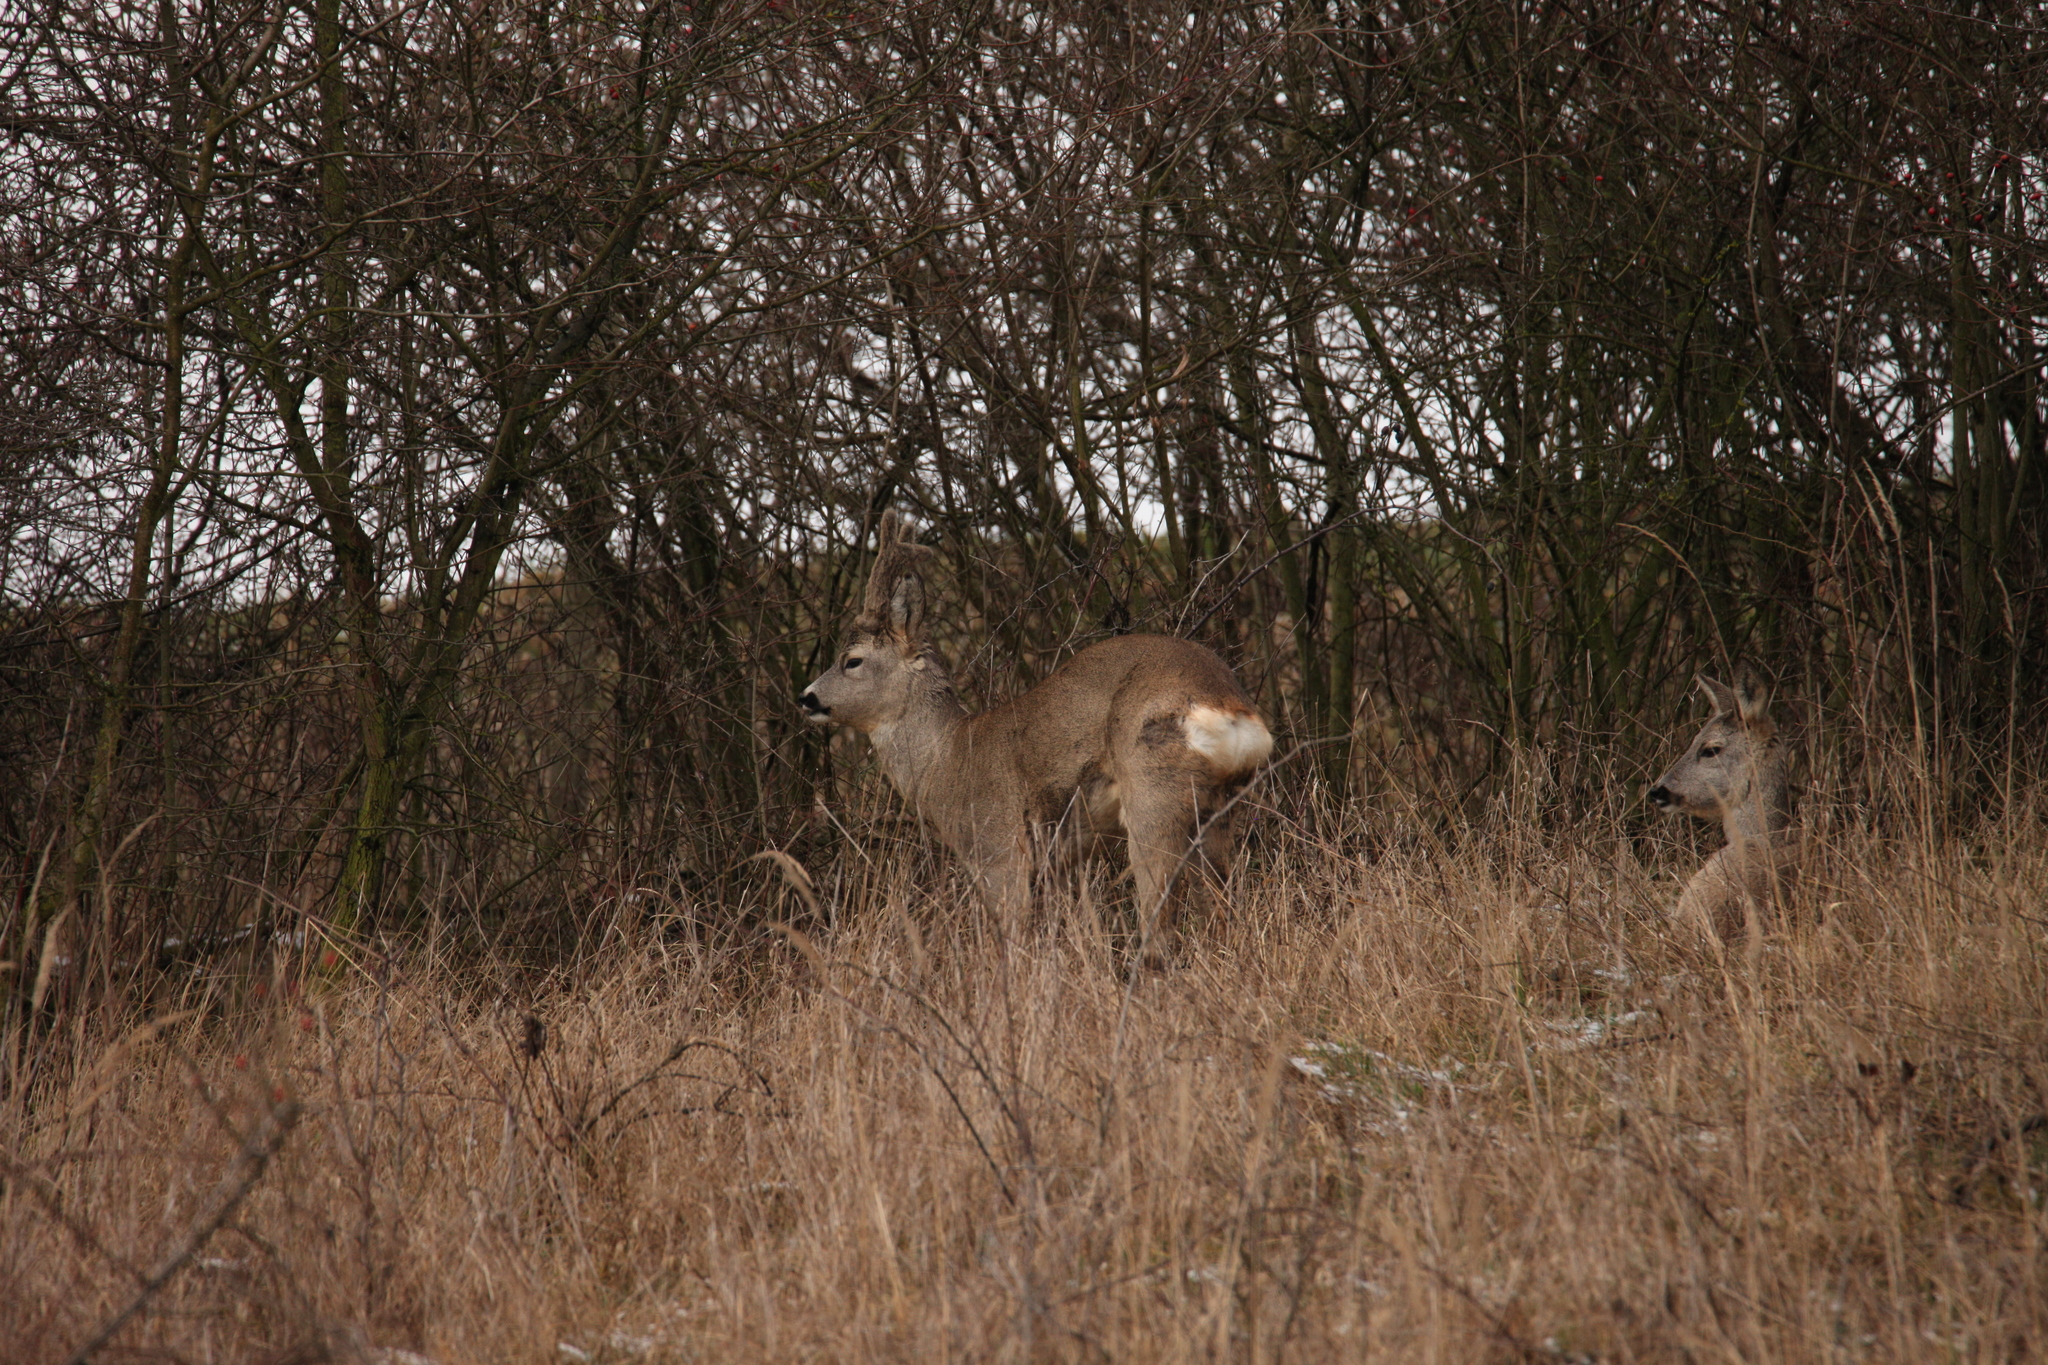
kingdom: Animalia
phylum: Chordata
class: Mammalia
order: Artiodactyla
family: Cervidae
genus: Capreolus
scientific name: Capreolus capreolus
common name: Western roe deer
